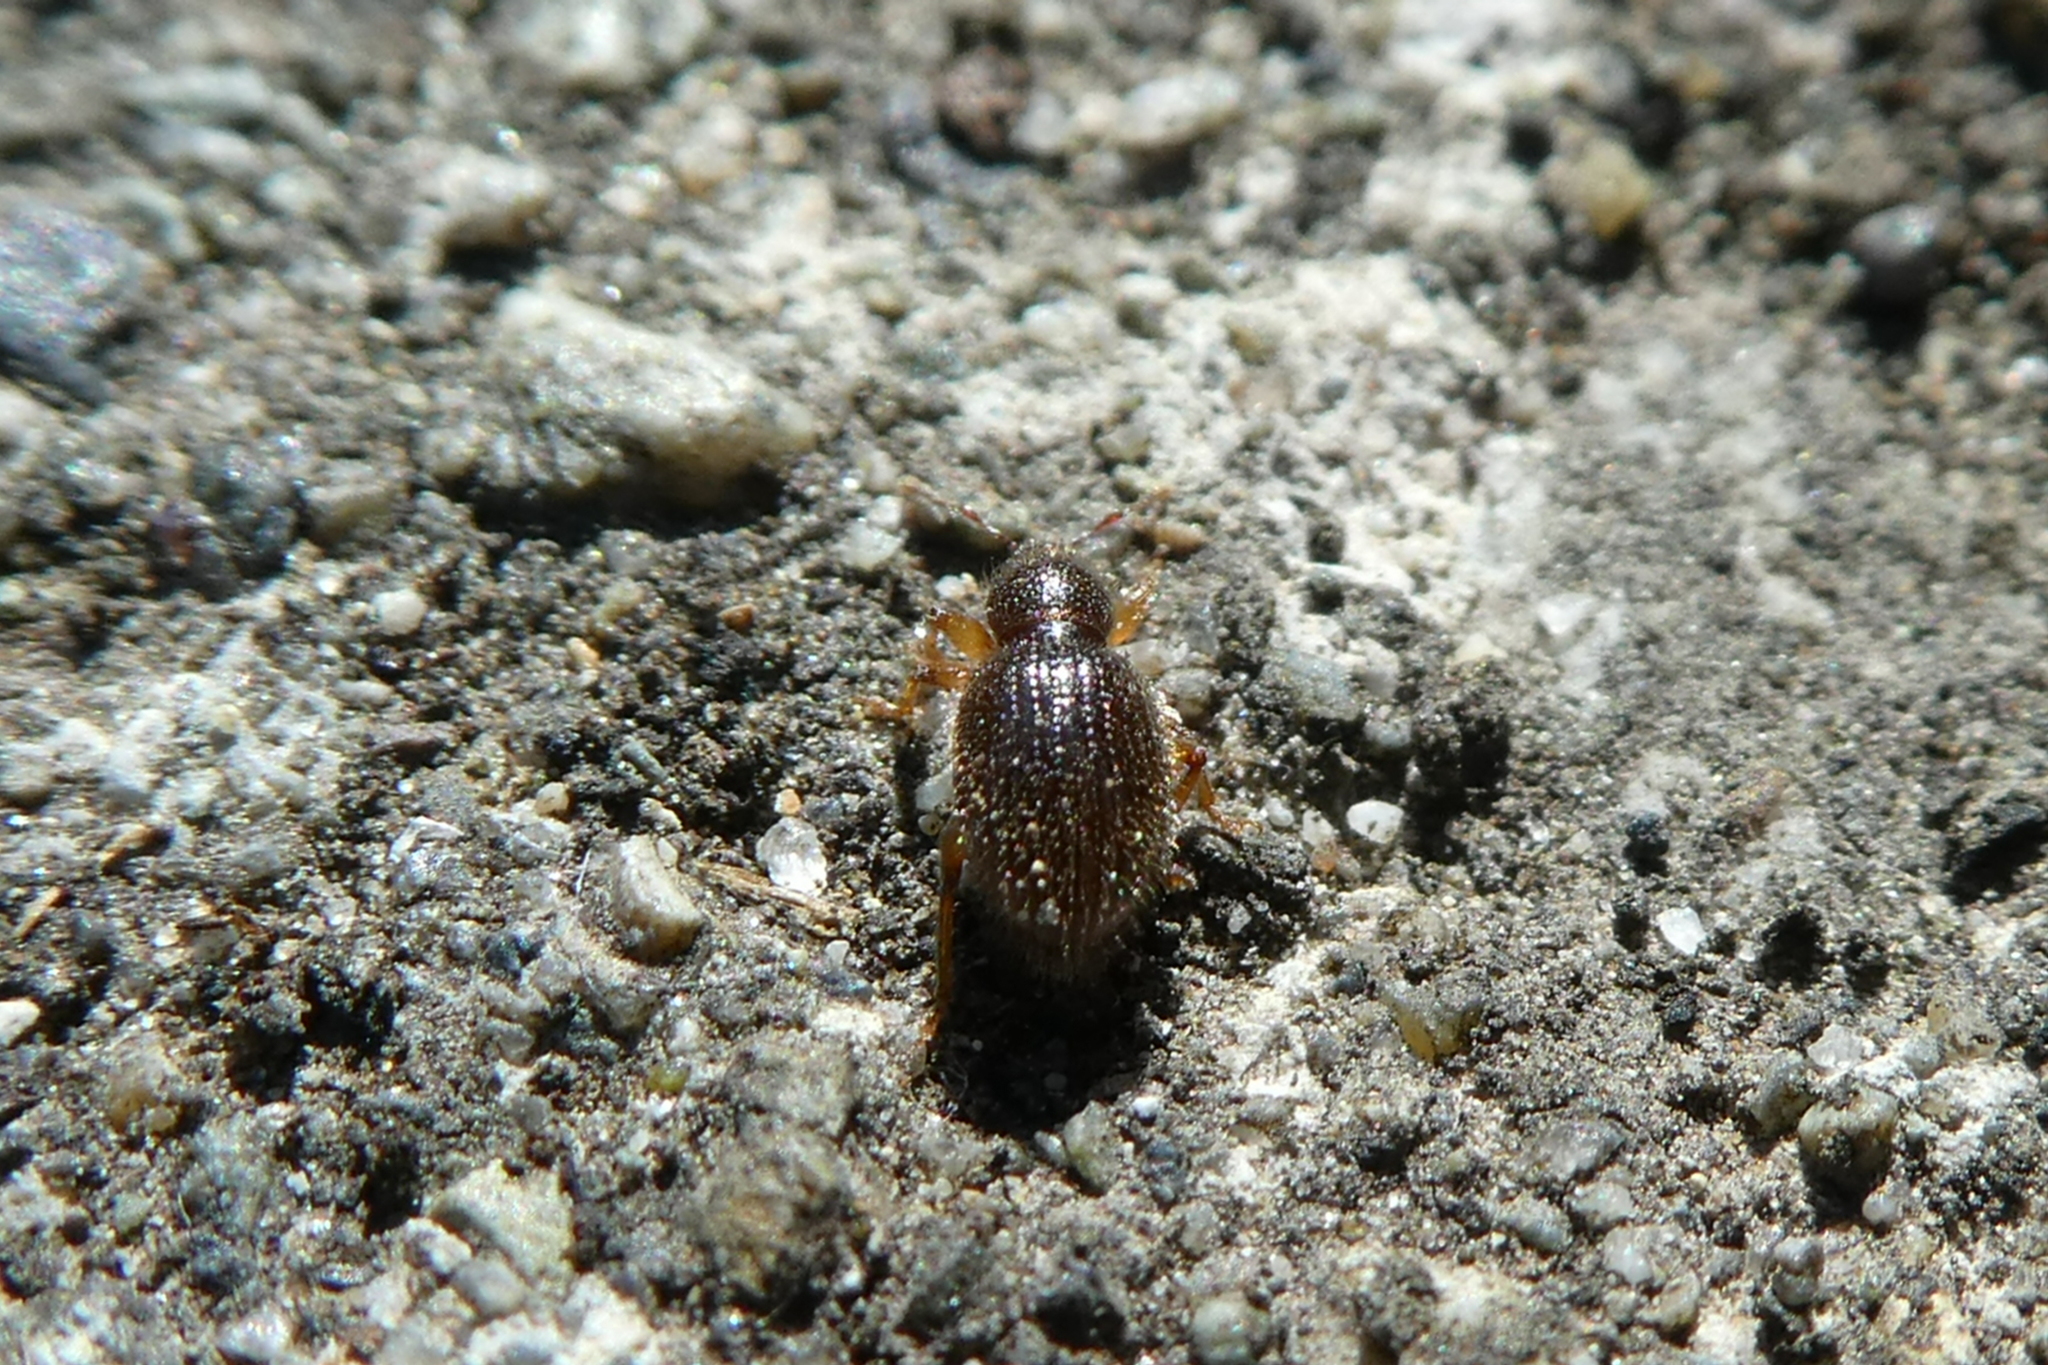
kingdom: Animalia
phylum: Arthropoda
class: Insecta
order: Coleoptera
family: Curculionidae
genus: Exomias
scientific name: Exomias pellucidus
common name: Hairy spider weevil
